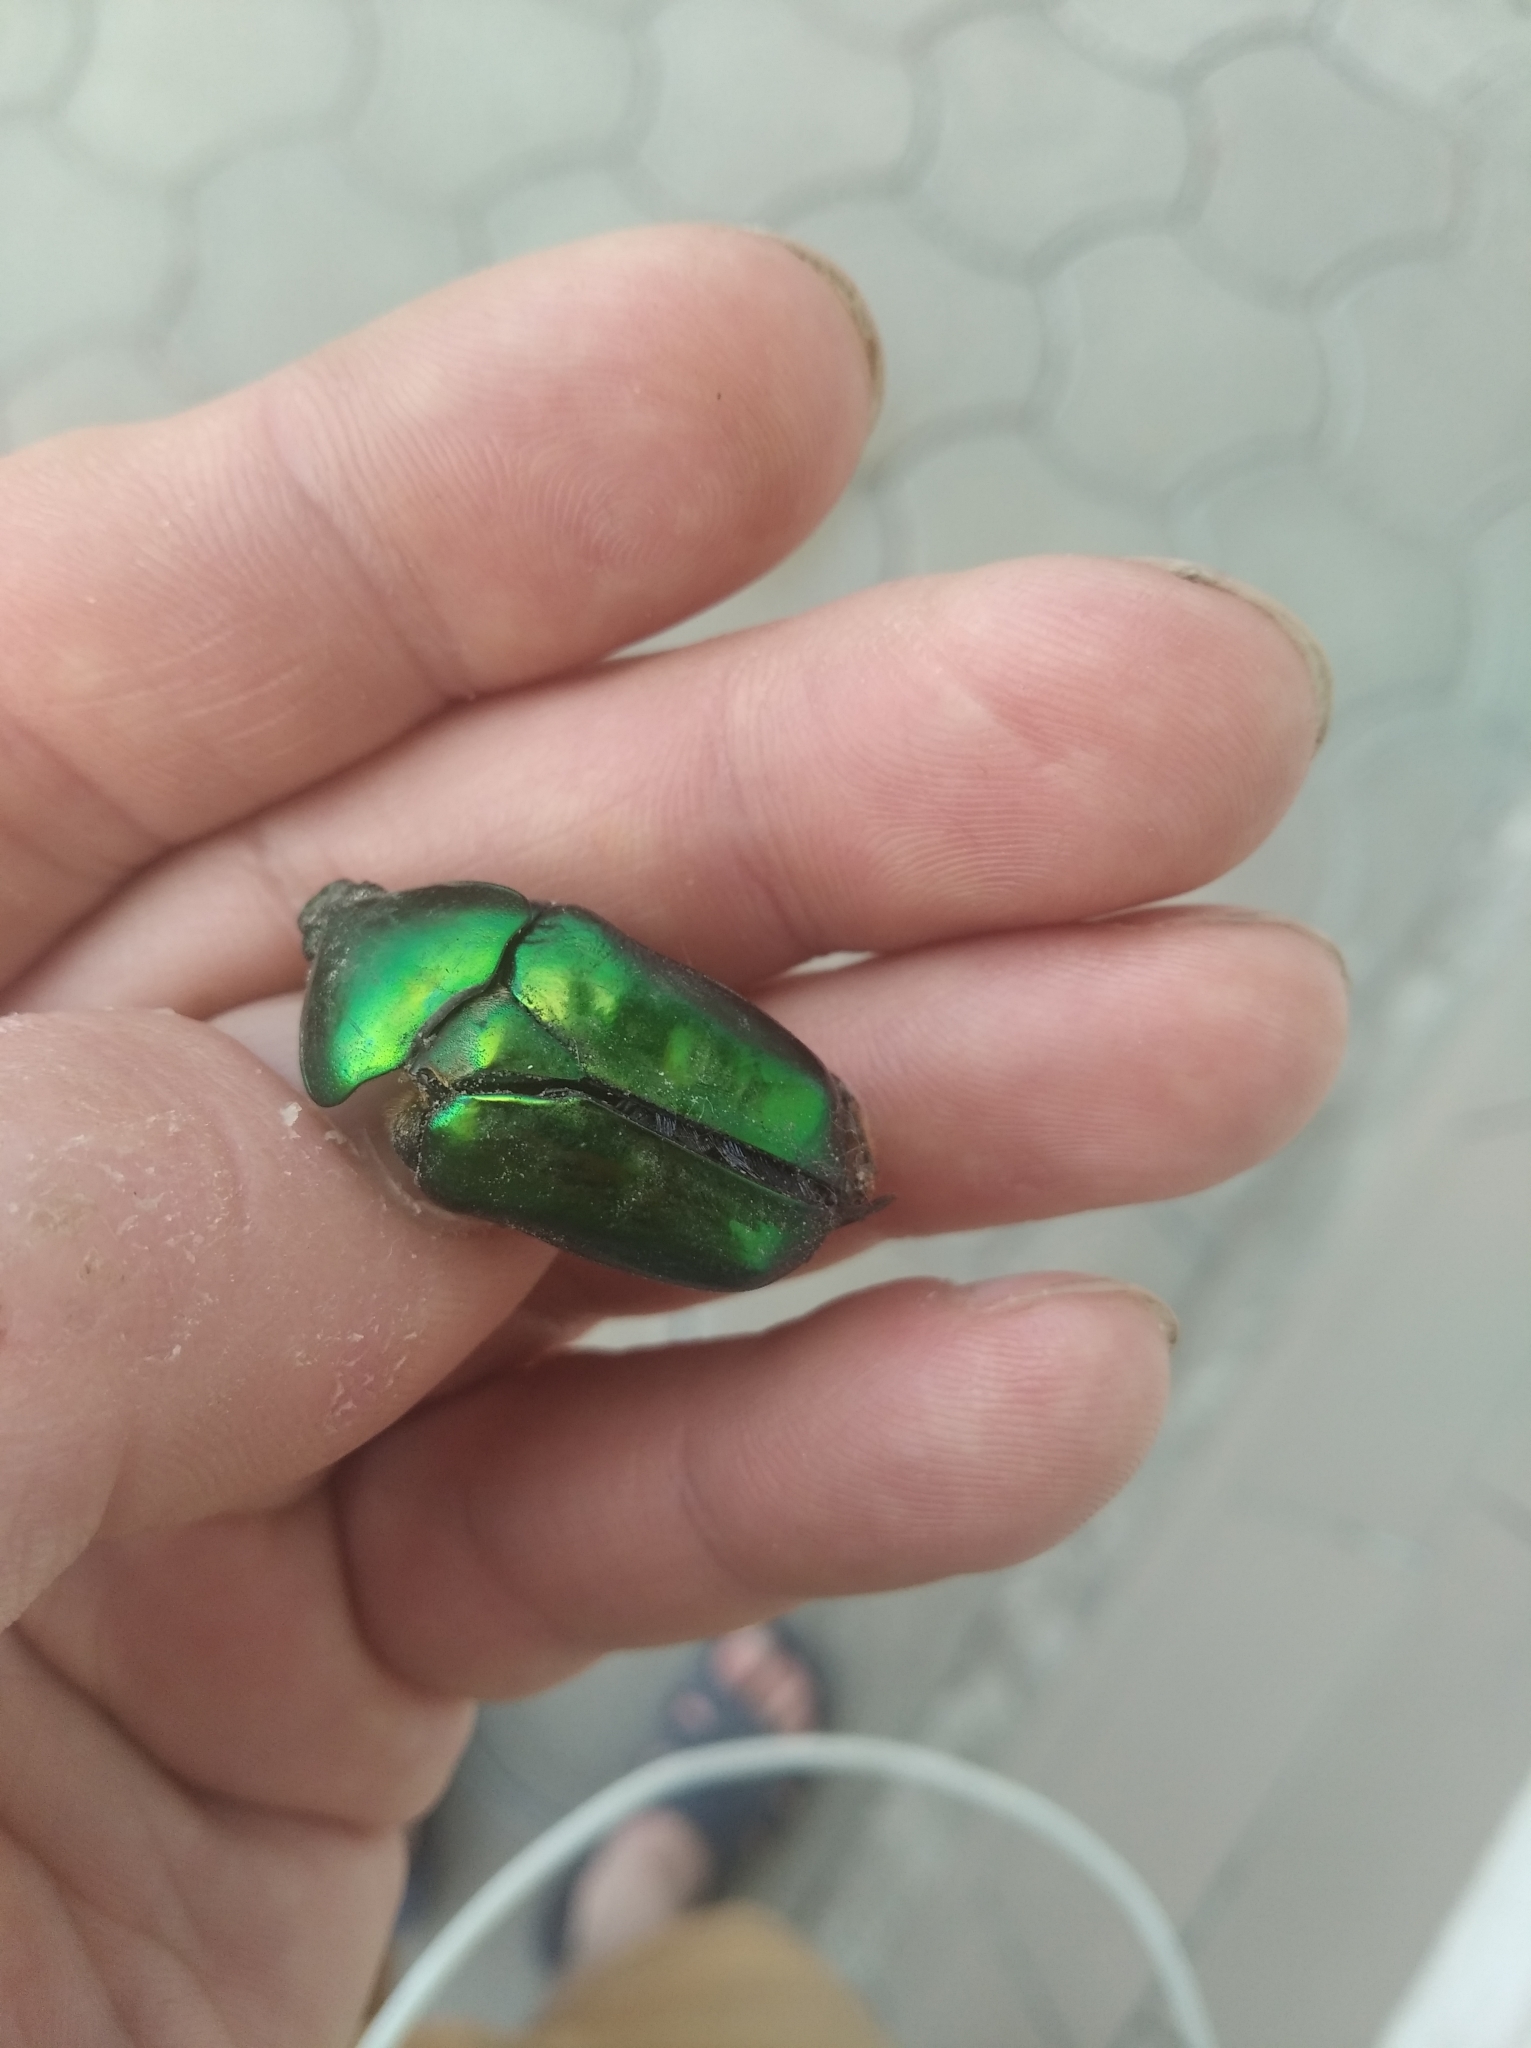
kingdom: Animalia
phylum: Arthropoda
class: Insecta
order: Coleoptera
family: Scarabaeidae
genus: Protaetia
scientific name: Protaetia affinis
